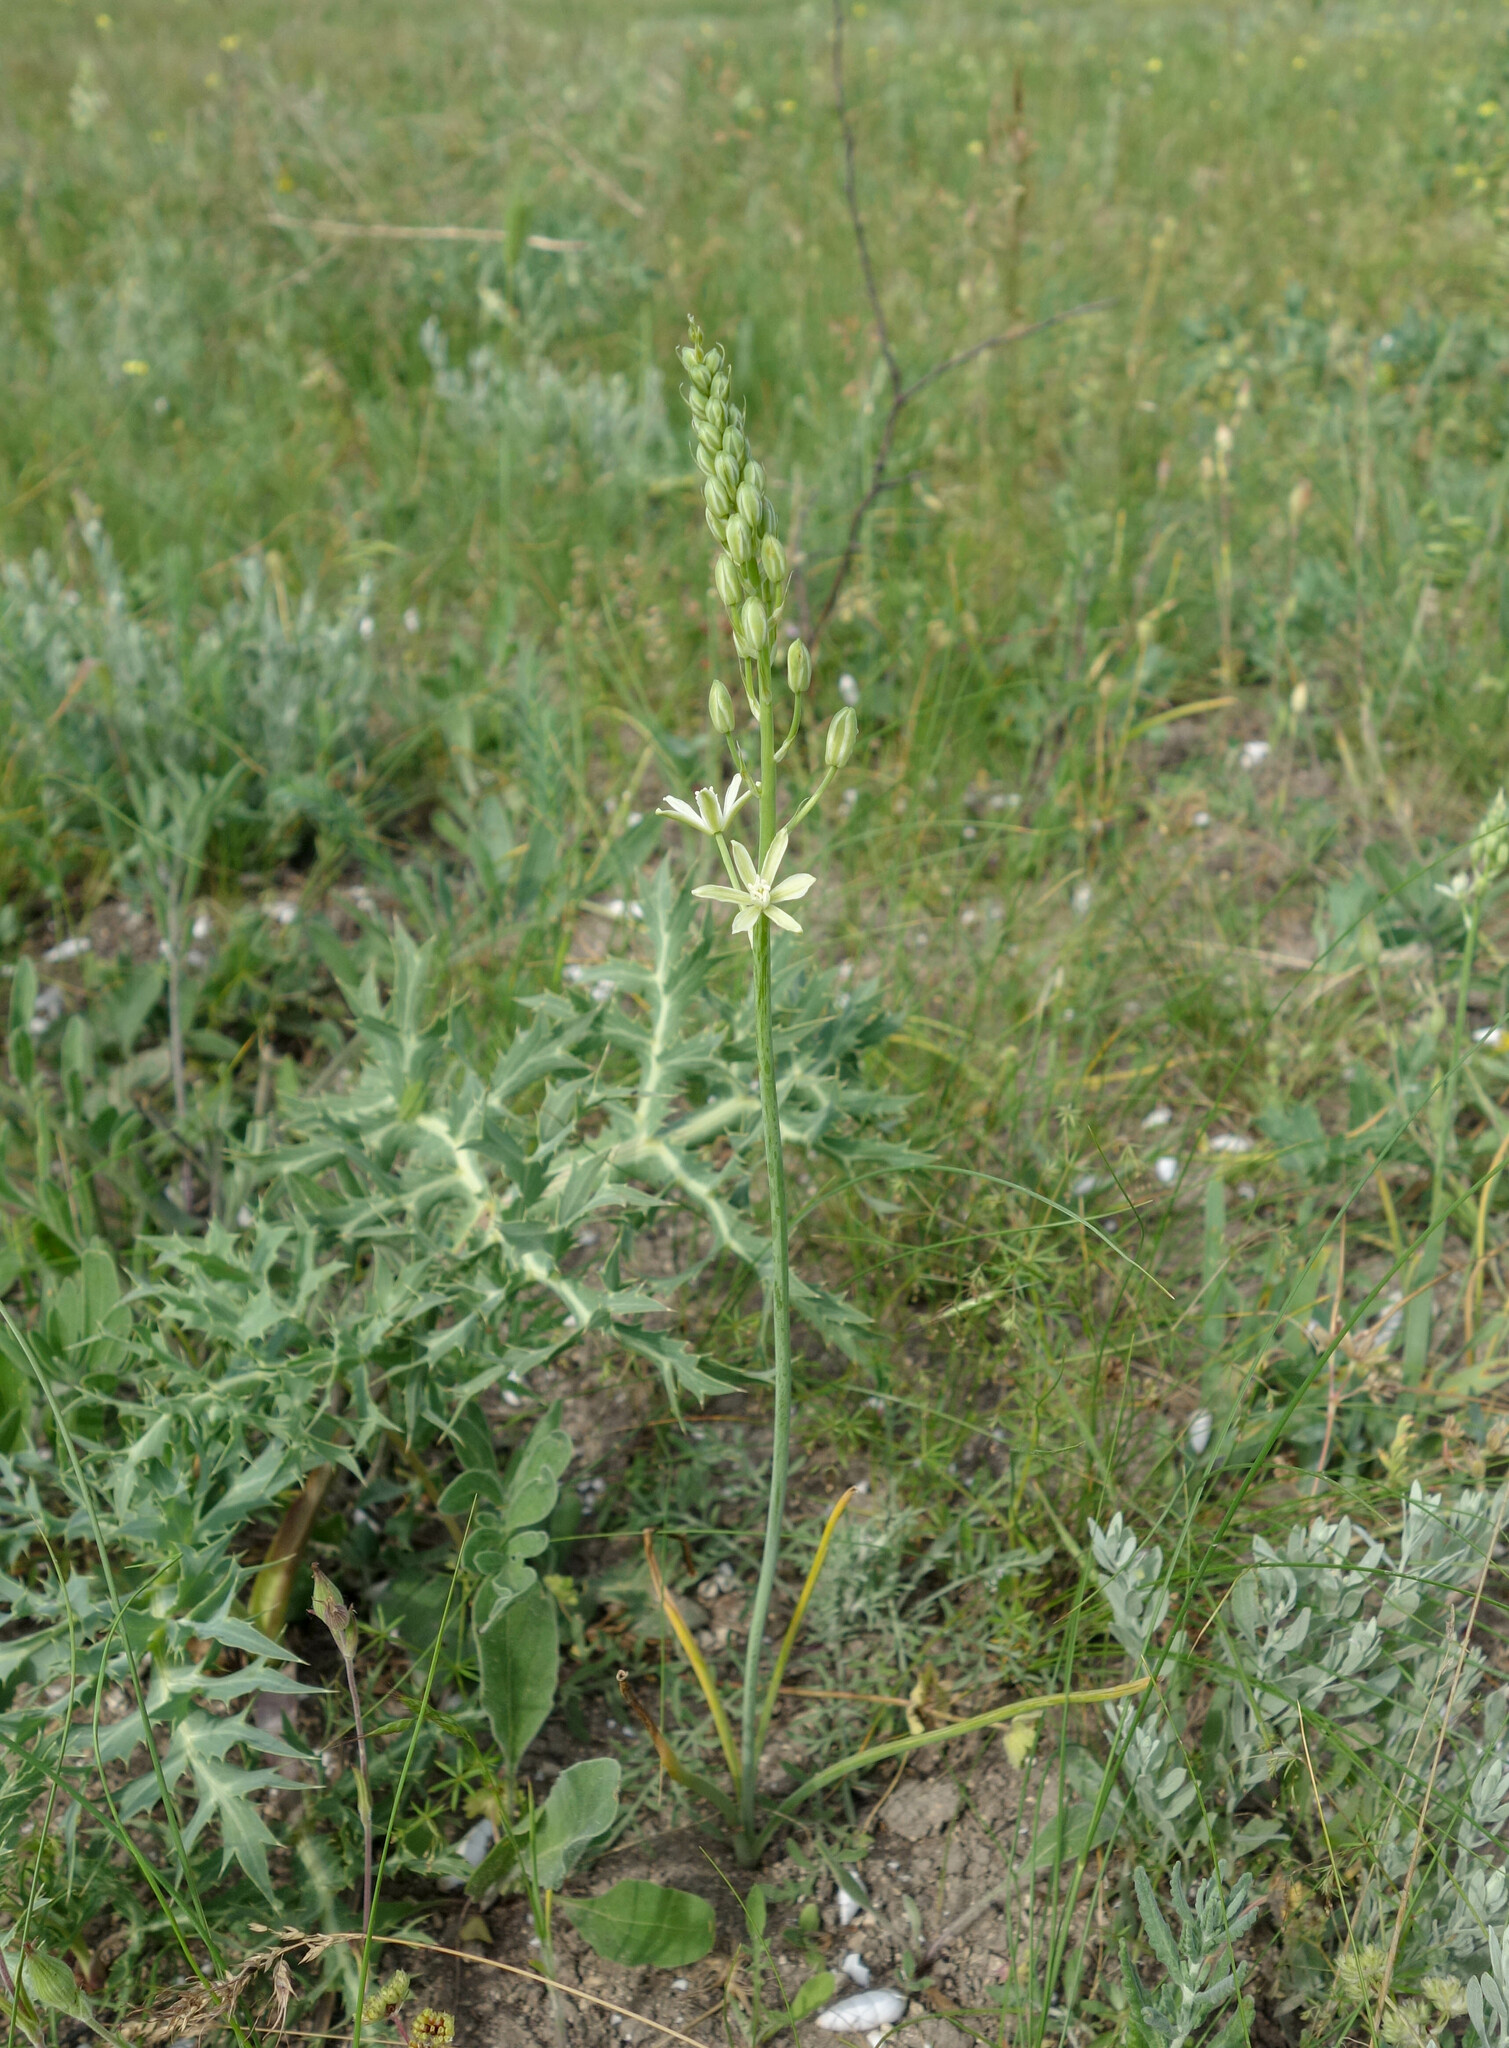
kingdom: Plantae
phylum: Tracheophyta
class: Liliopsida
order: Asparagales
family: Asparagaceae
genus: Ornithogalum
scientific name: Ornithogalum pyrenaicum
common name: Spiked star-of-bethlehem
